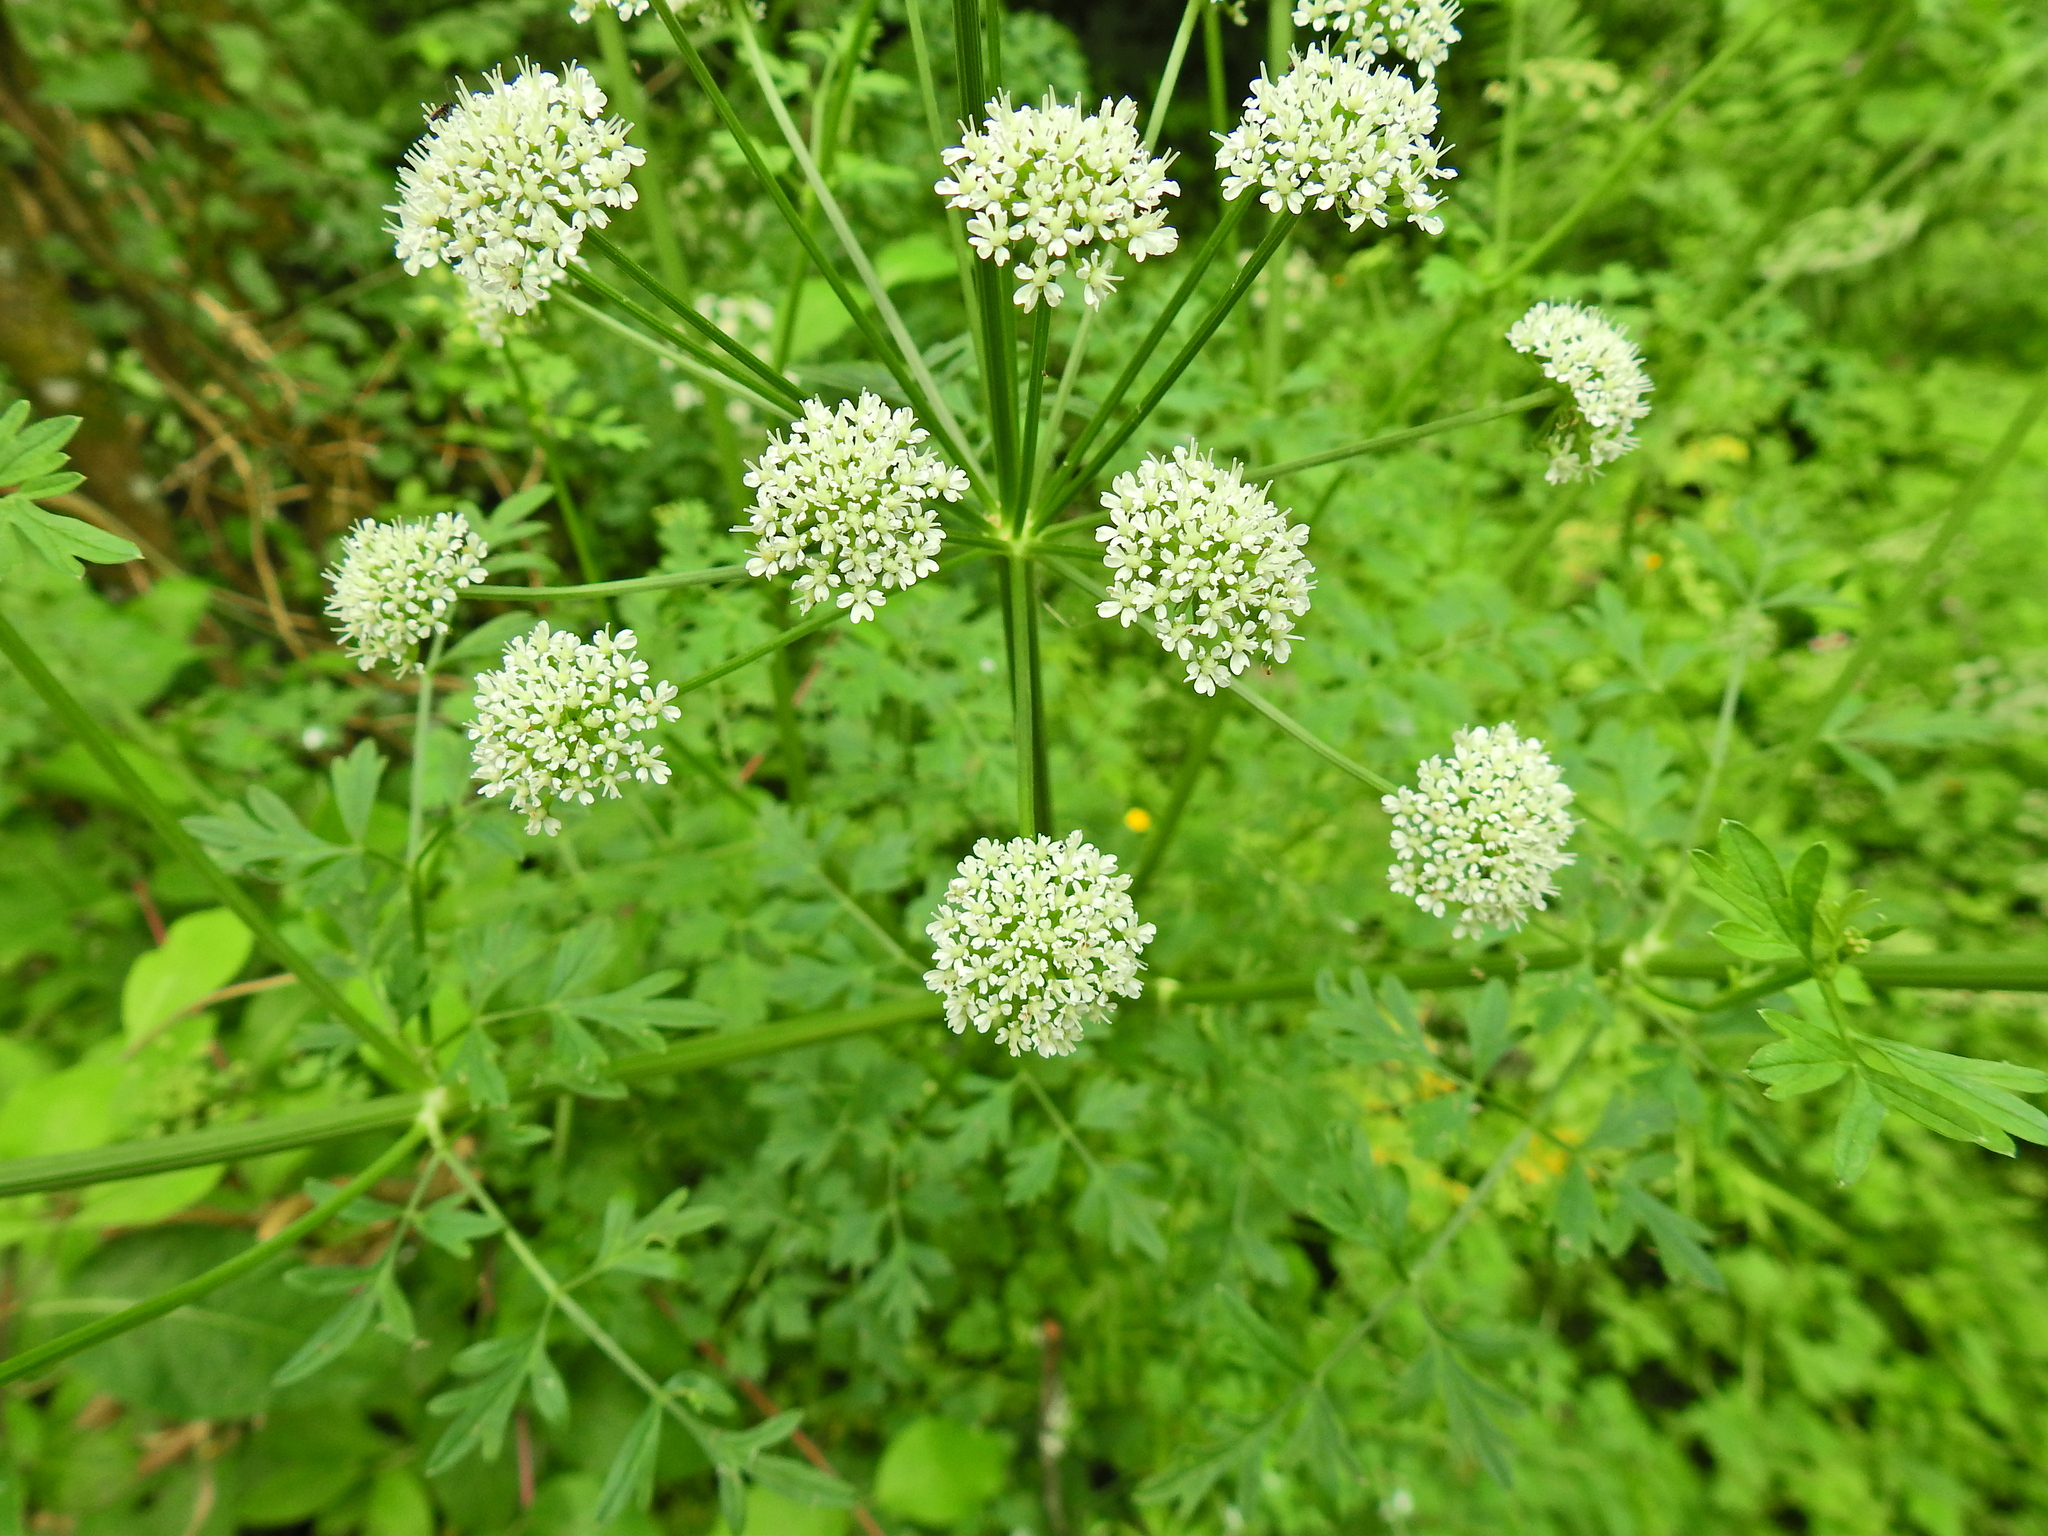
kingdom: Plantae
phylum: Tracheophyta
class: Magnoliopsida
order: Apiales
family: Apiaceae
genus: Oenanthe
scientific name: Oenanthe crocata
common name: Hemlock water-dropwort
